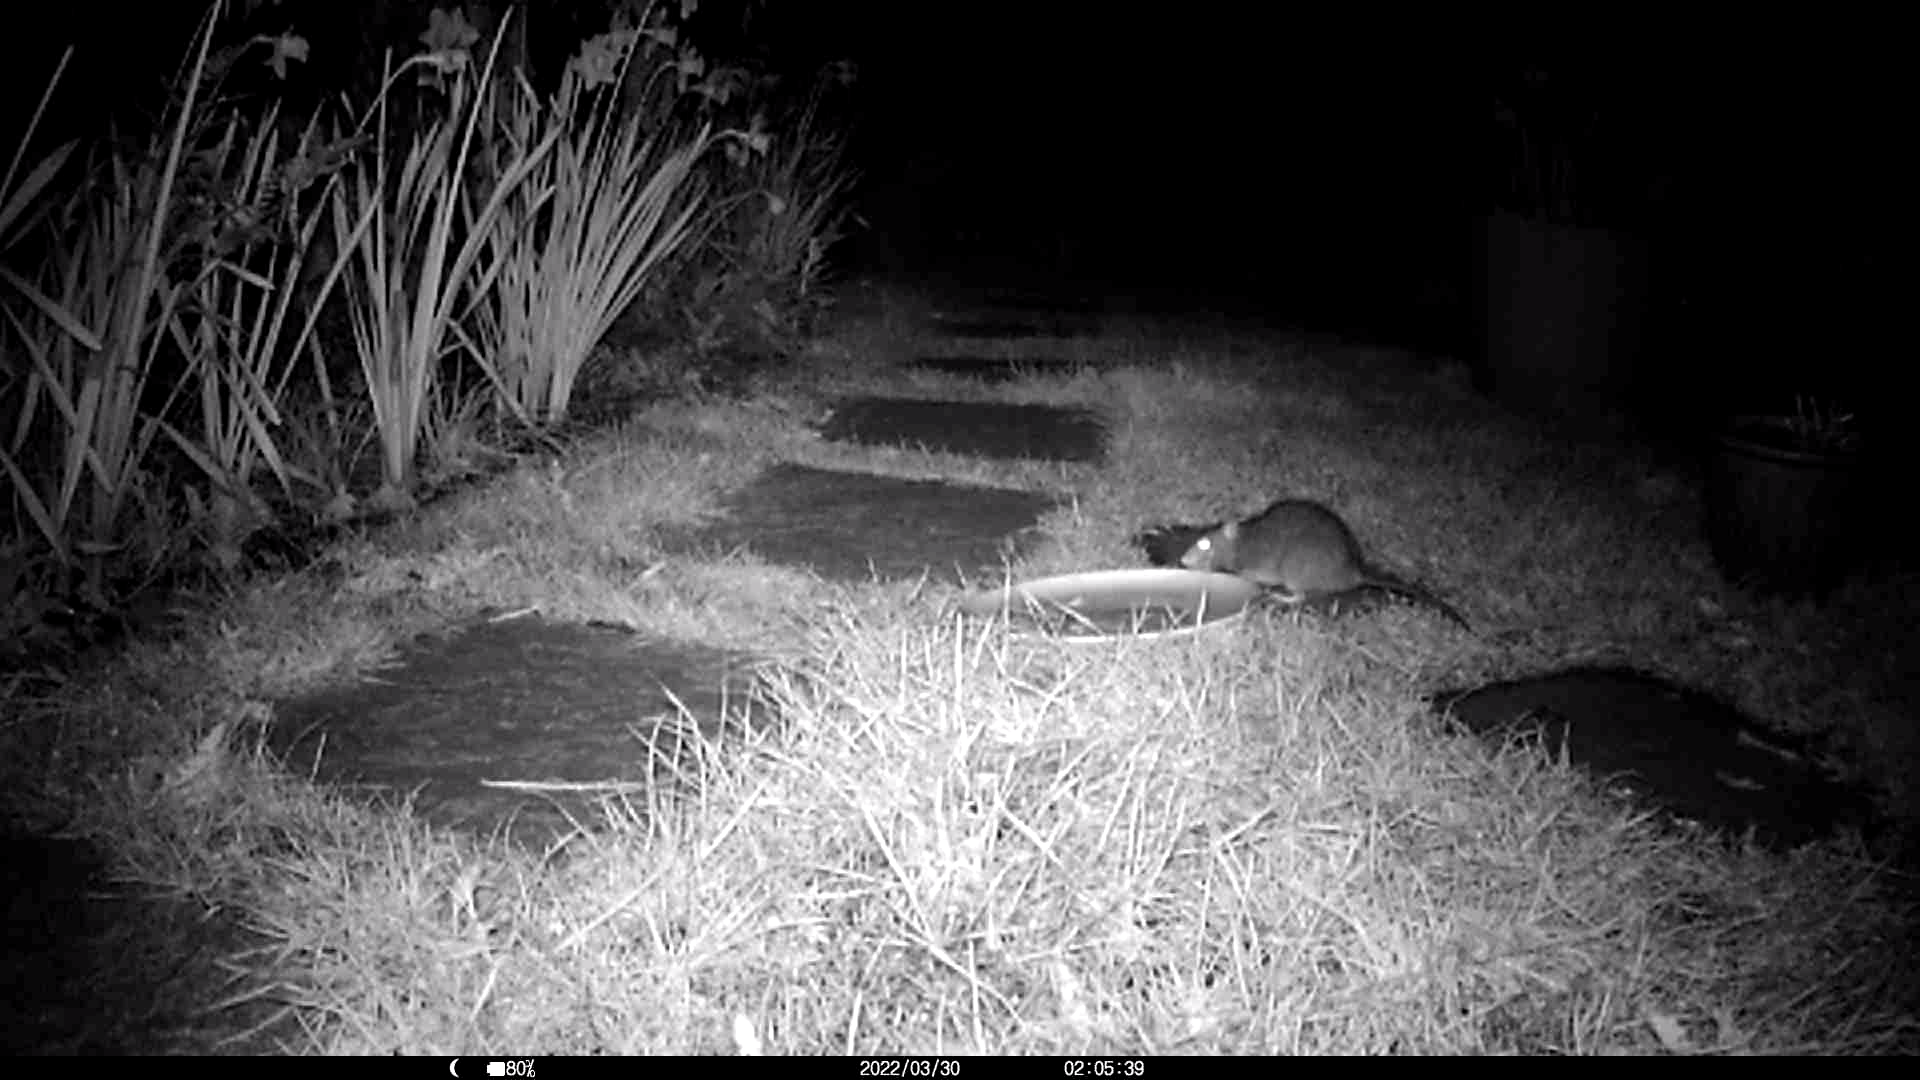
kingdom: Animalia
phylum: Chordata
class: Mammalia
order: Rodentia
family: Muridae
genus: Rattus
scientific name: Rattus norvegicus
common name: Brown rat
